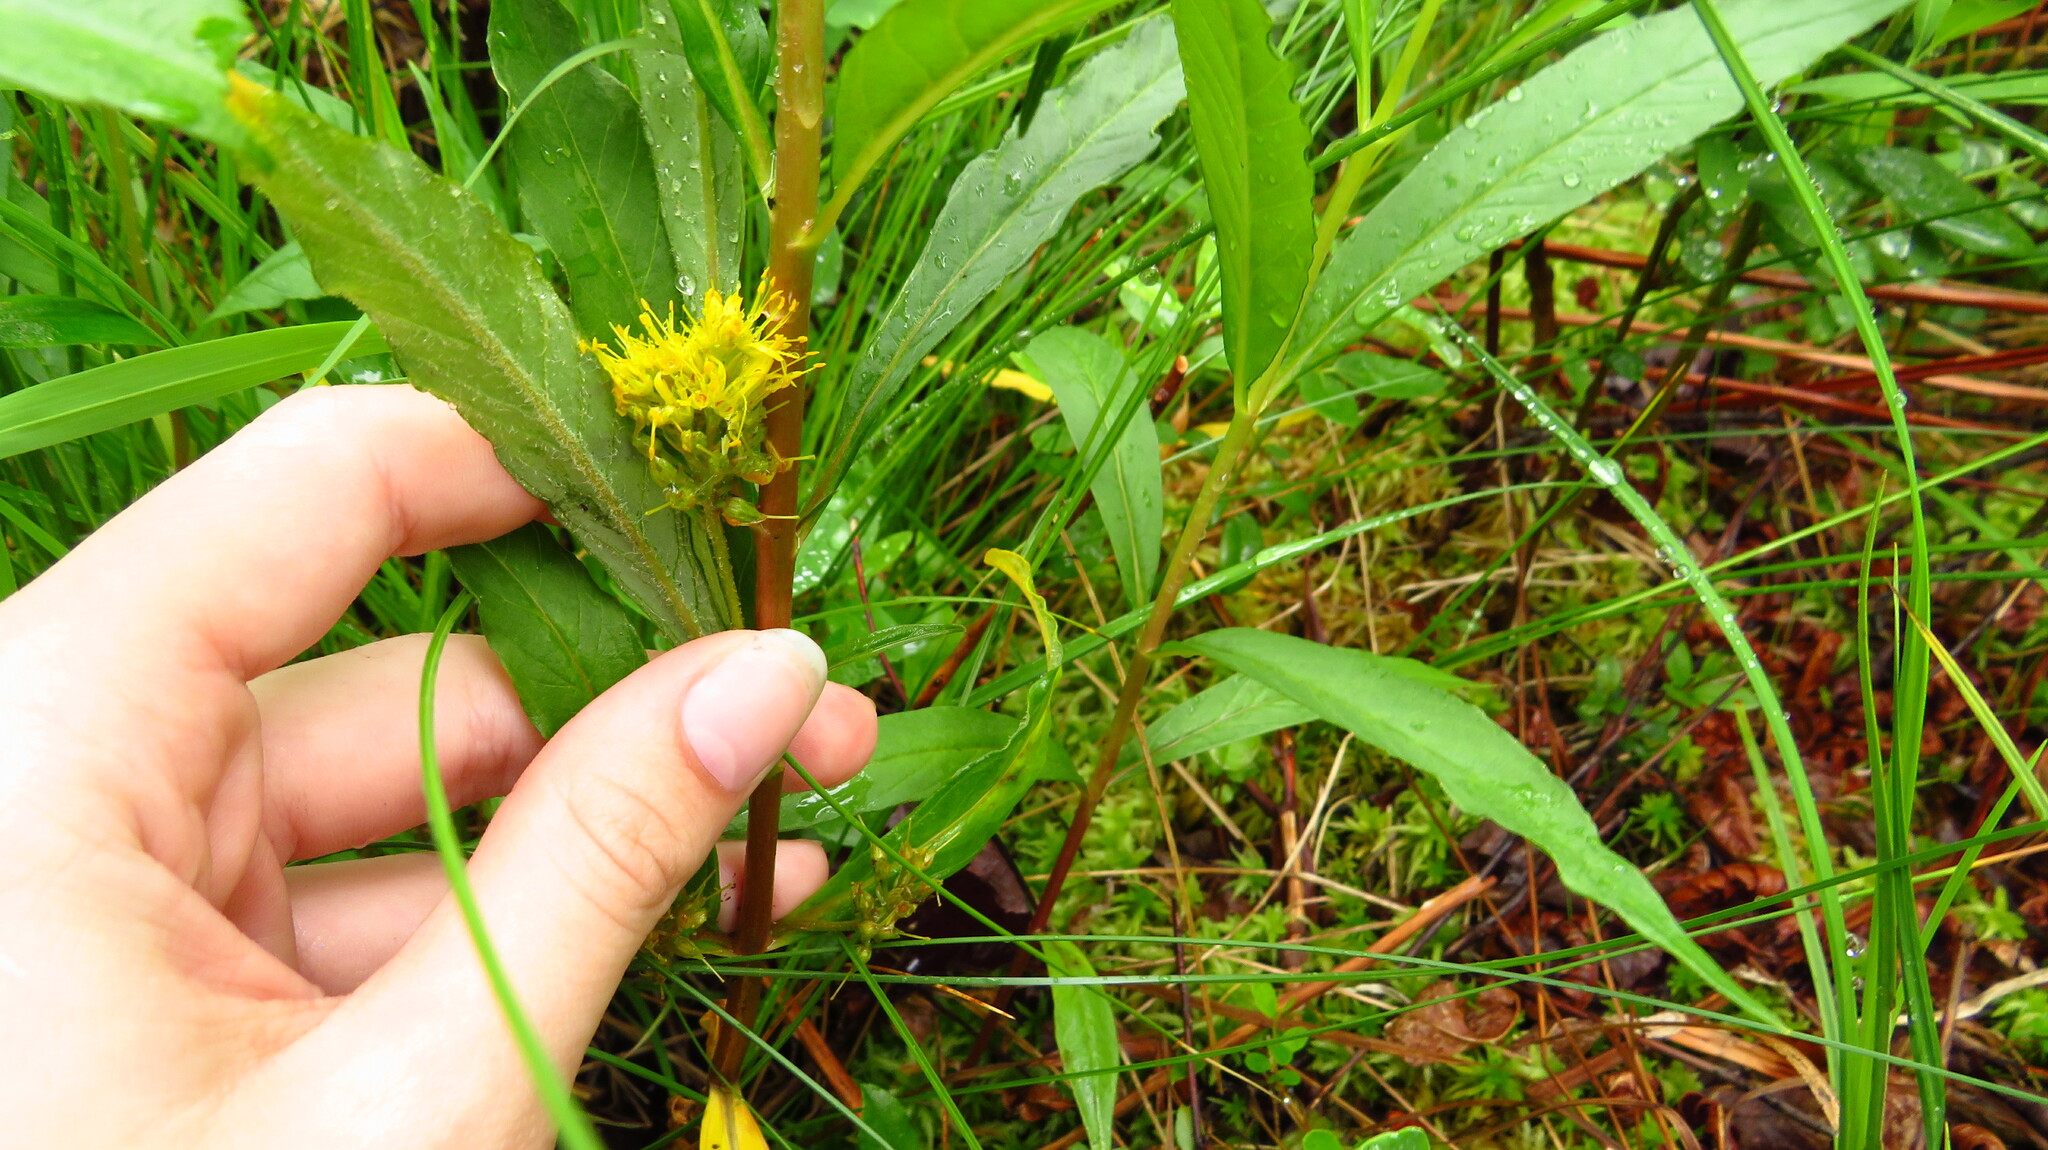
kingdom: Plantae
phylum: Tracheophyta
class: Magnoliopsida
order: Ericales
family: Primulaceae
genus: Lysimachia
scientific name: Lysimachia thyrsiflora
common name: Tufted loosestrife
